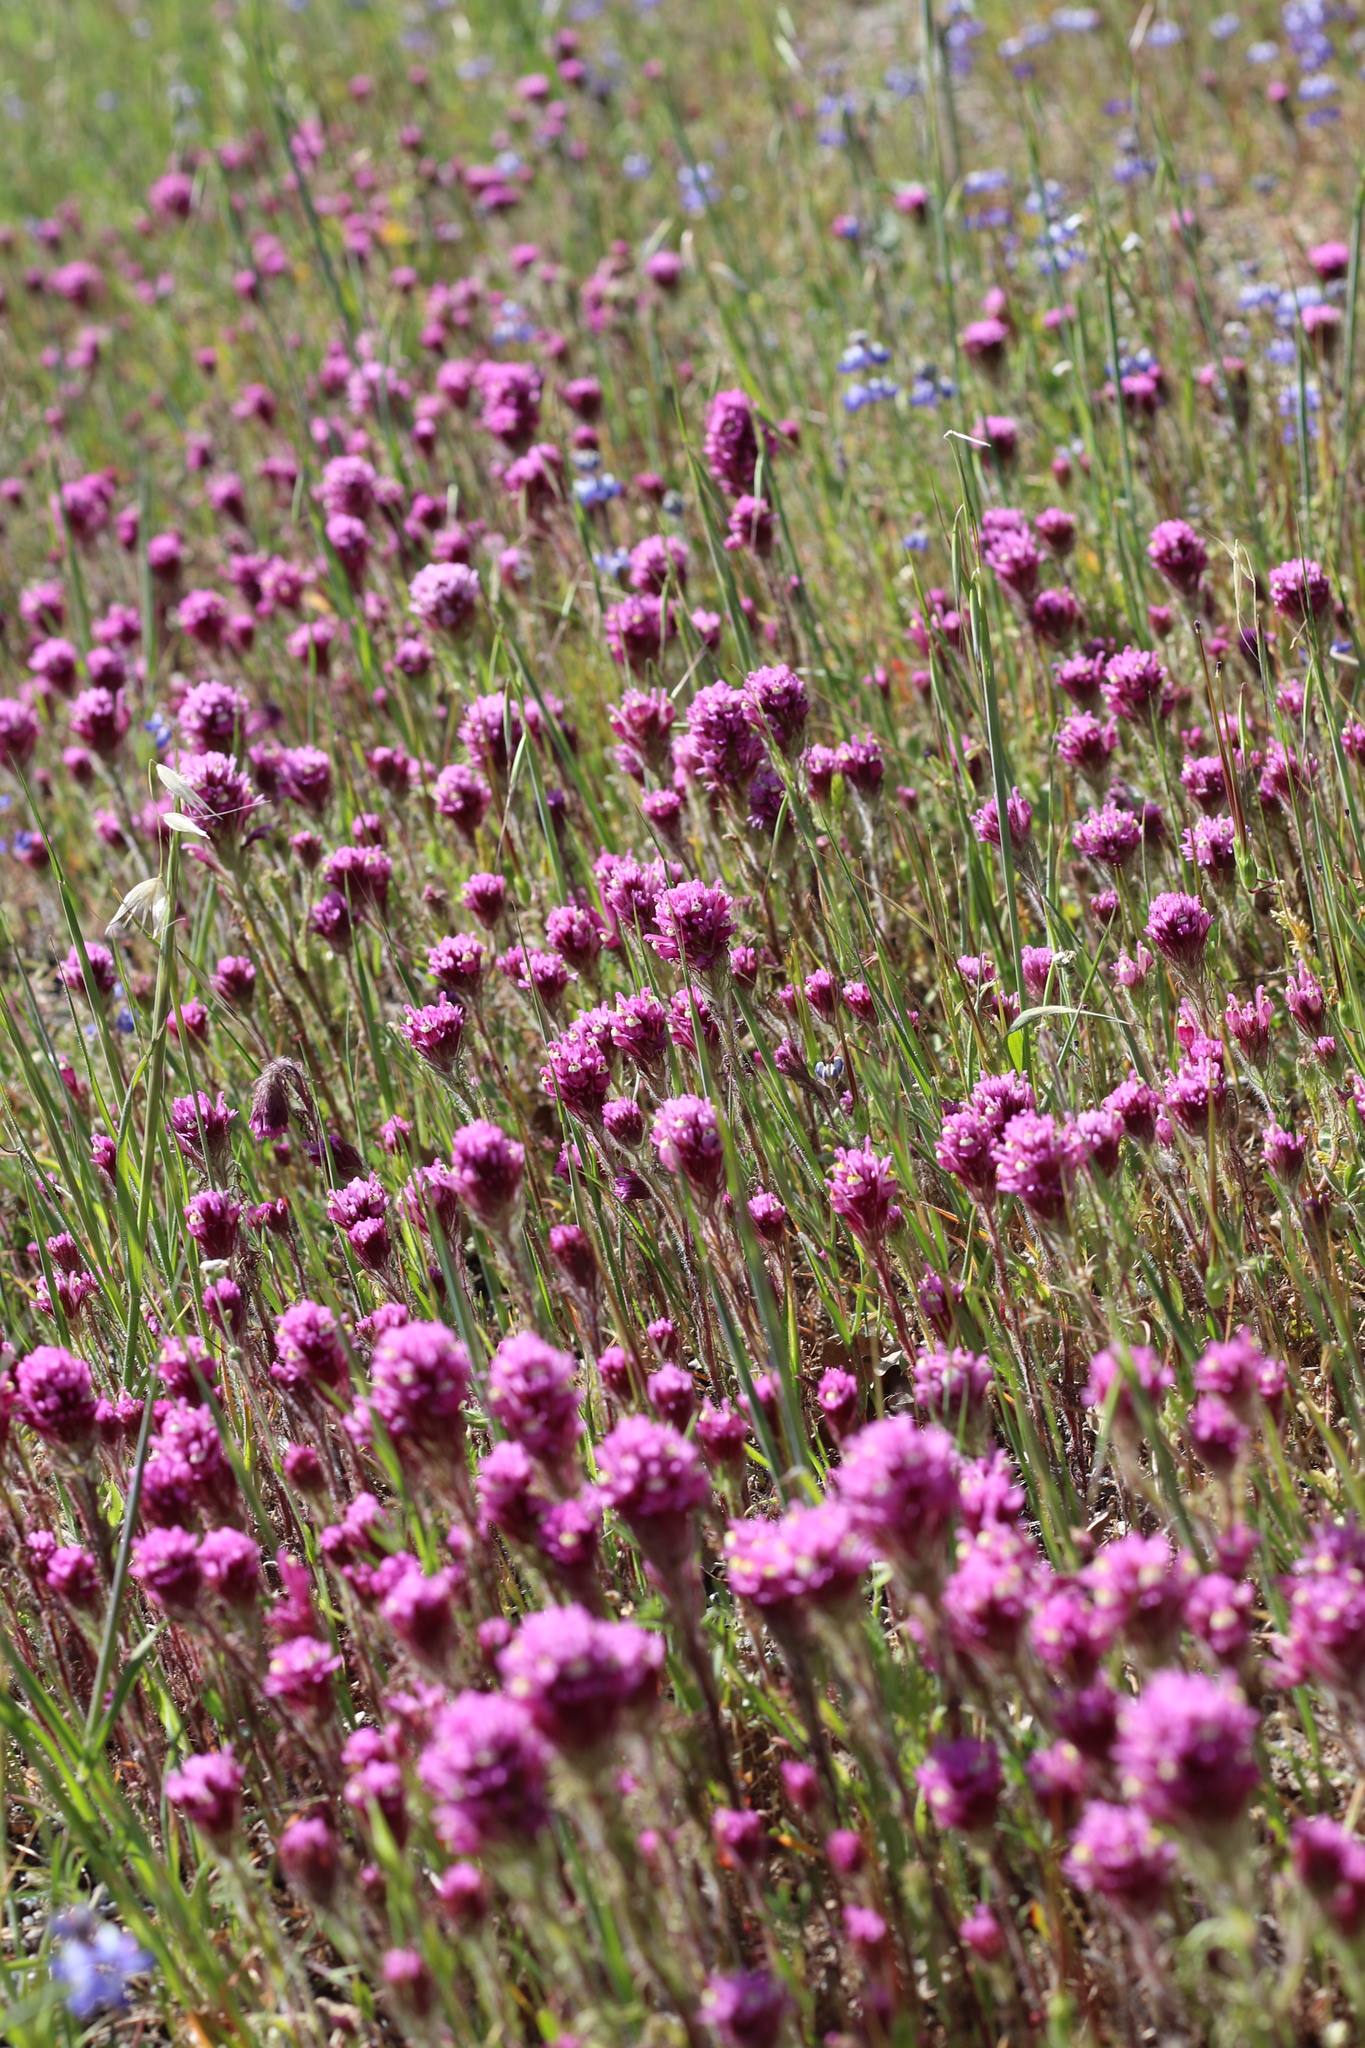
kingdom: Plantae
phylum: Tracheophyta
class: Magnoliopsida
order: Lamiales
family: Orobanchaceae
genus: Castilleja
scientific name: Castilleja exserta
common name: Purple owl-clover
